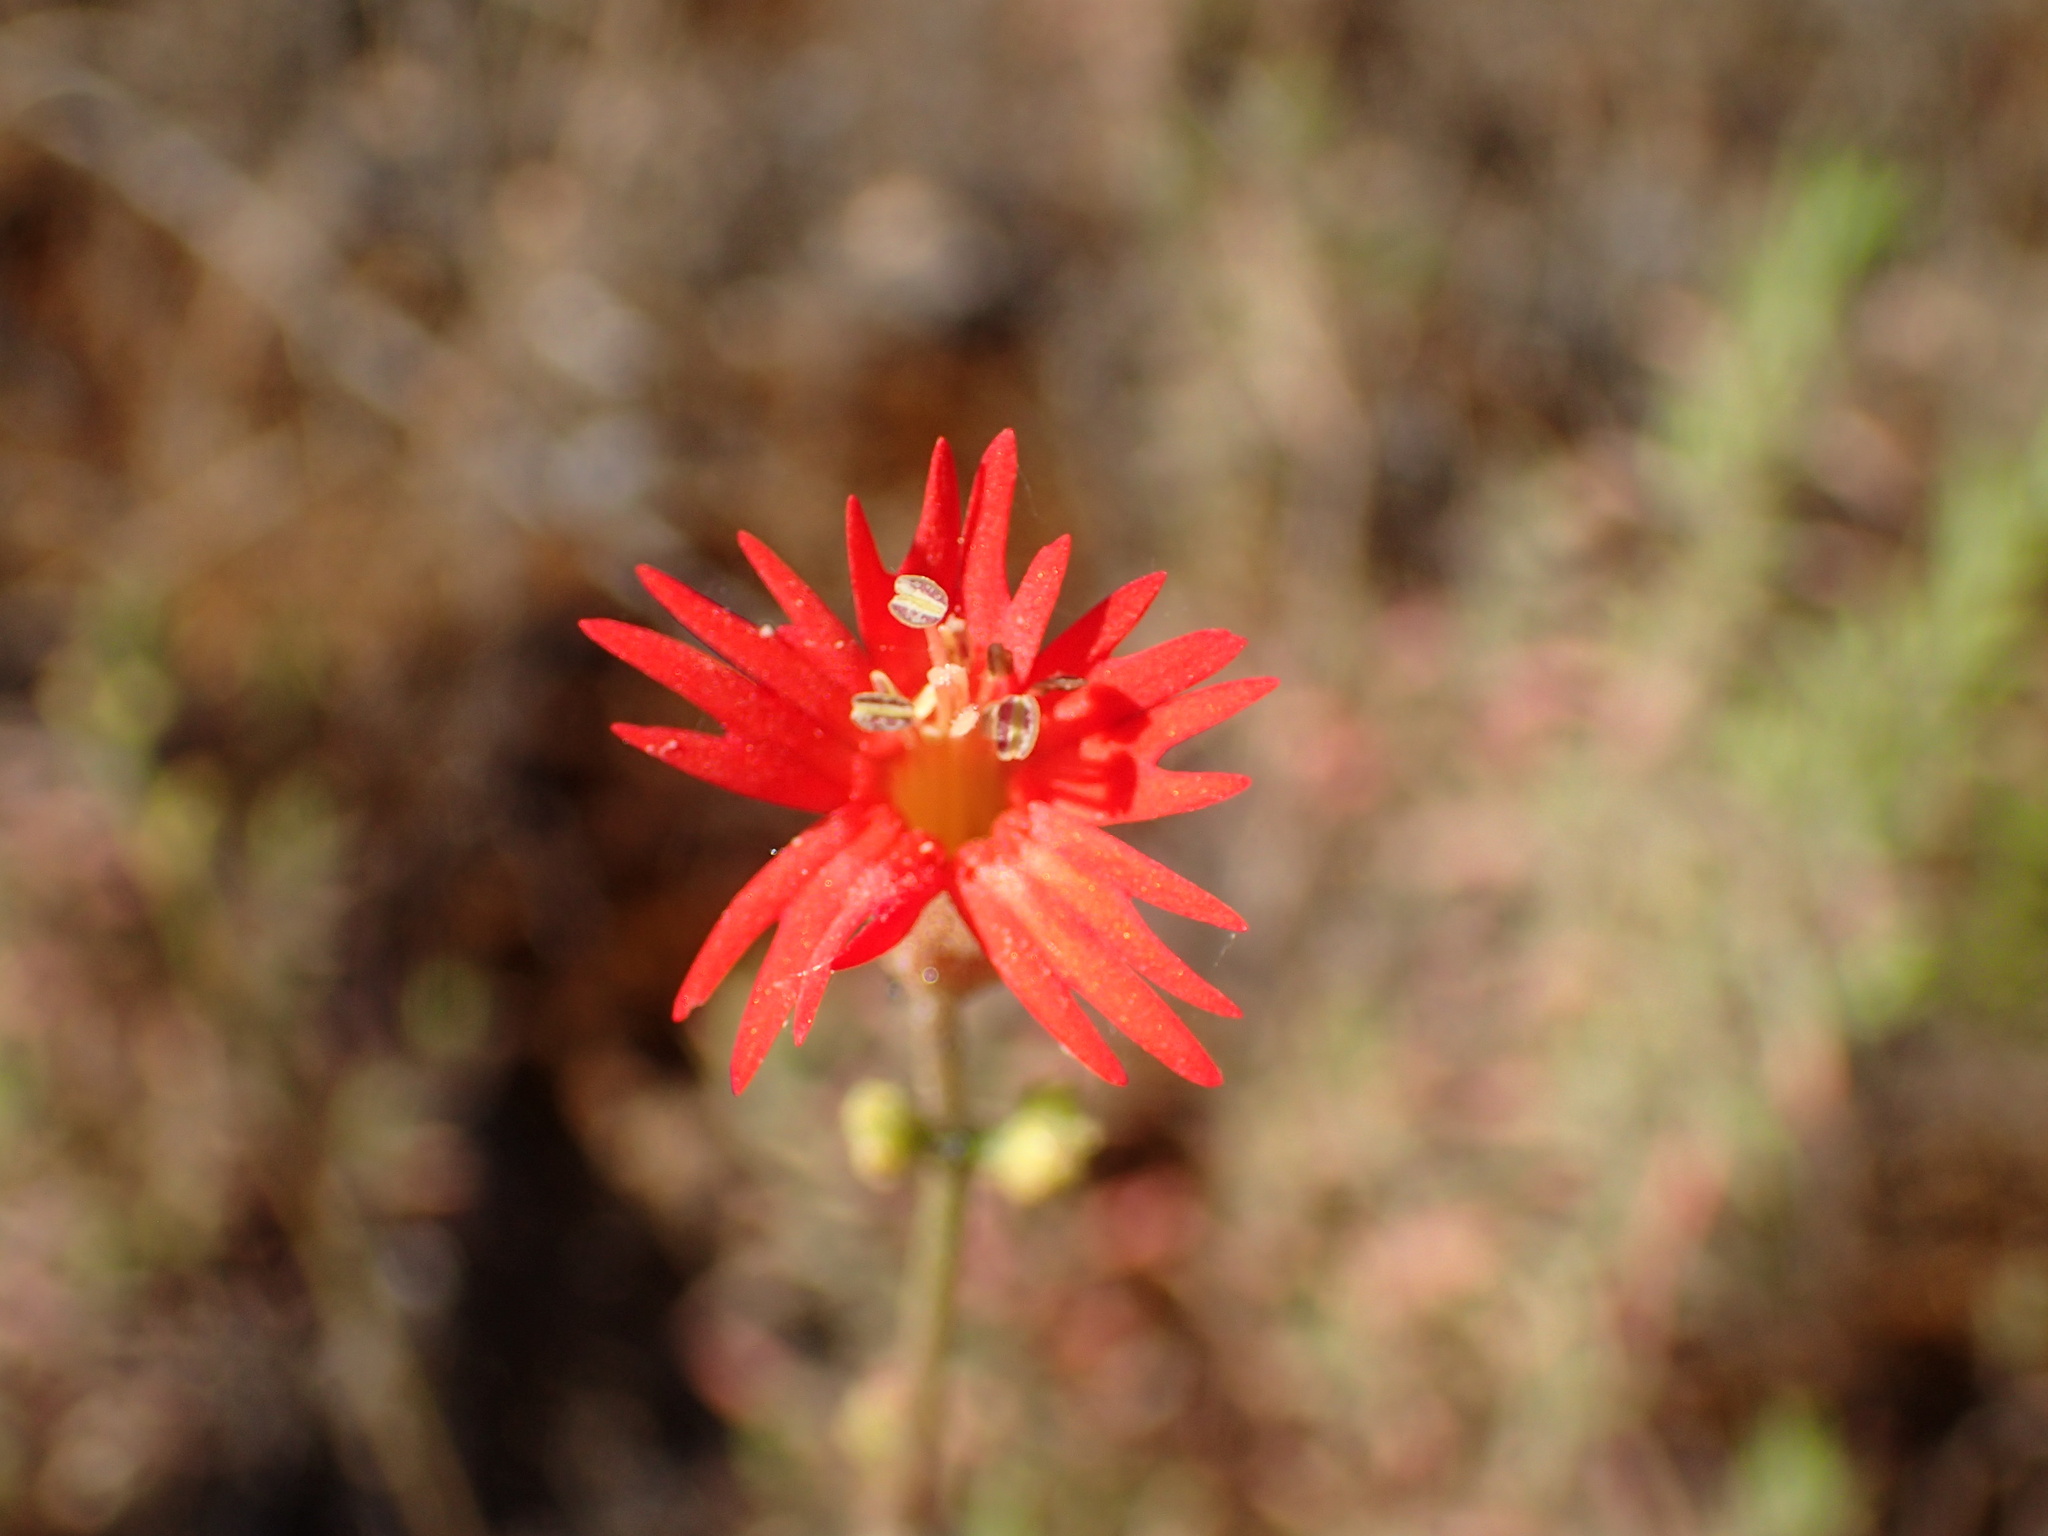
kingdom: Plantae
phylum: Tracheophyta
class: Magnoliopsida
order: Caryophyllales
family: Caryophyllaceae
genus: Silene
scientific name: Silene laciniata
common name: Indian-pink
